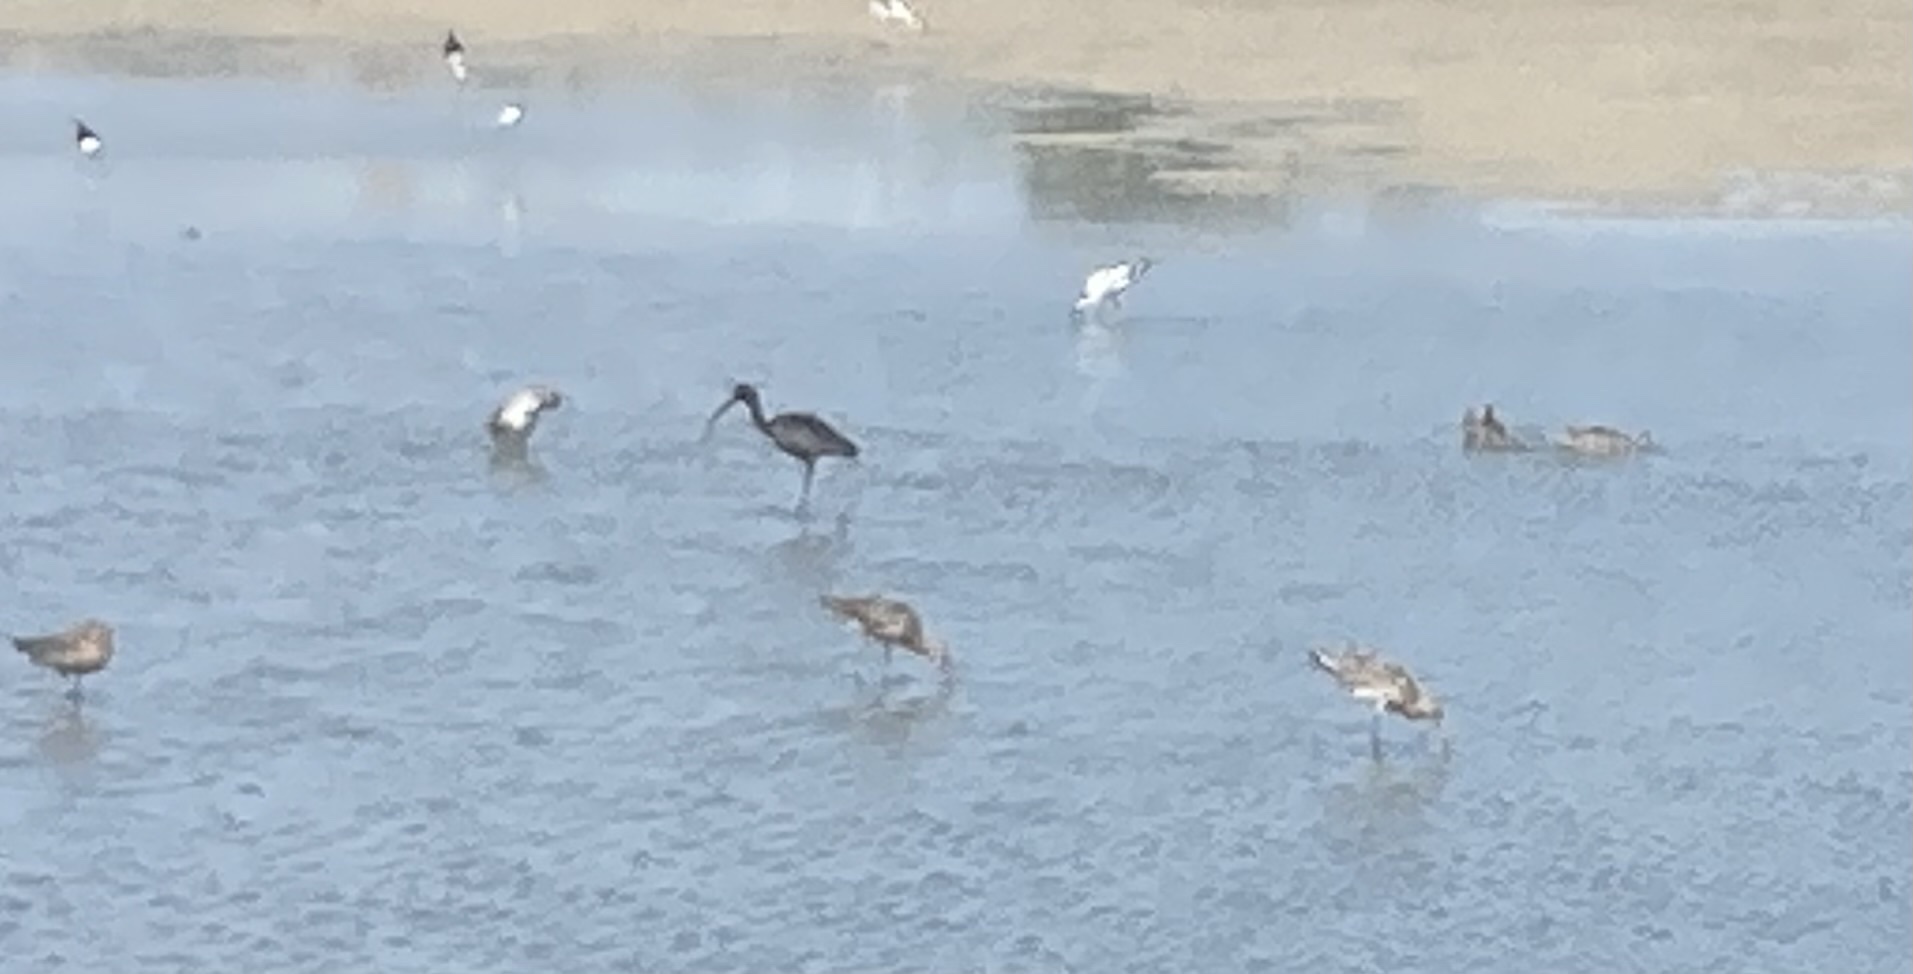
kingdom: Animalia
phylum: Chordata
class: Aves
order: Charadriiformes
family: Scolopacidae
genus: Limosa
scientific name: Limosa limosa
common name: Black-tailed godwit
